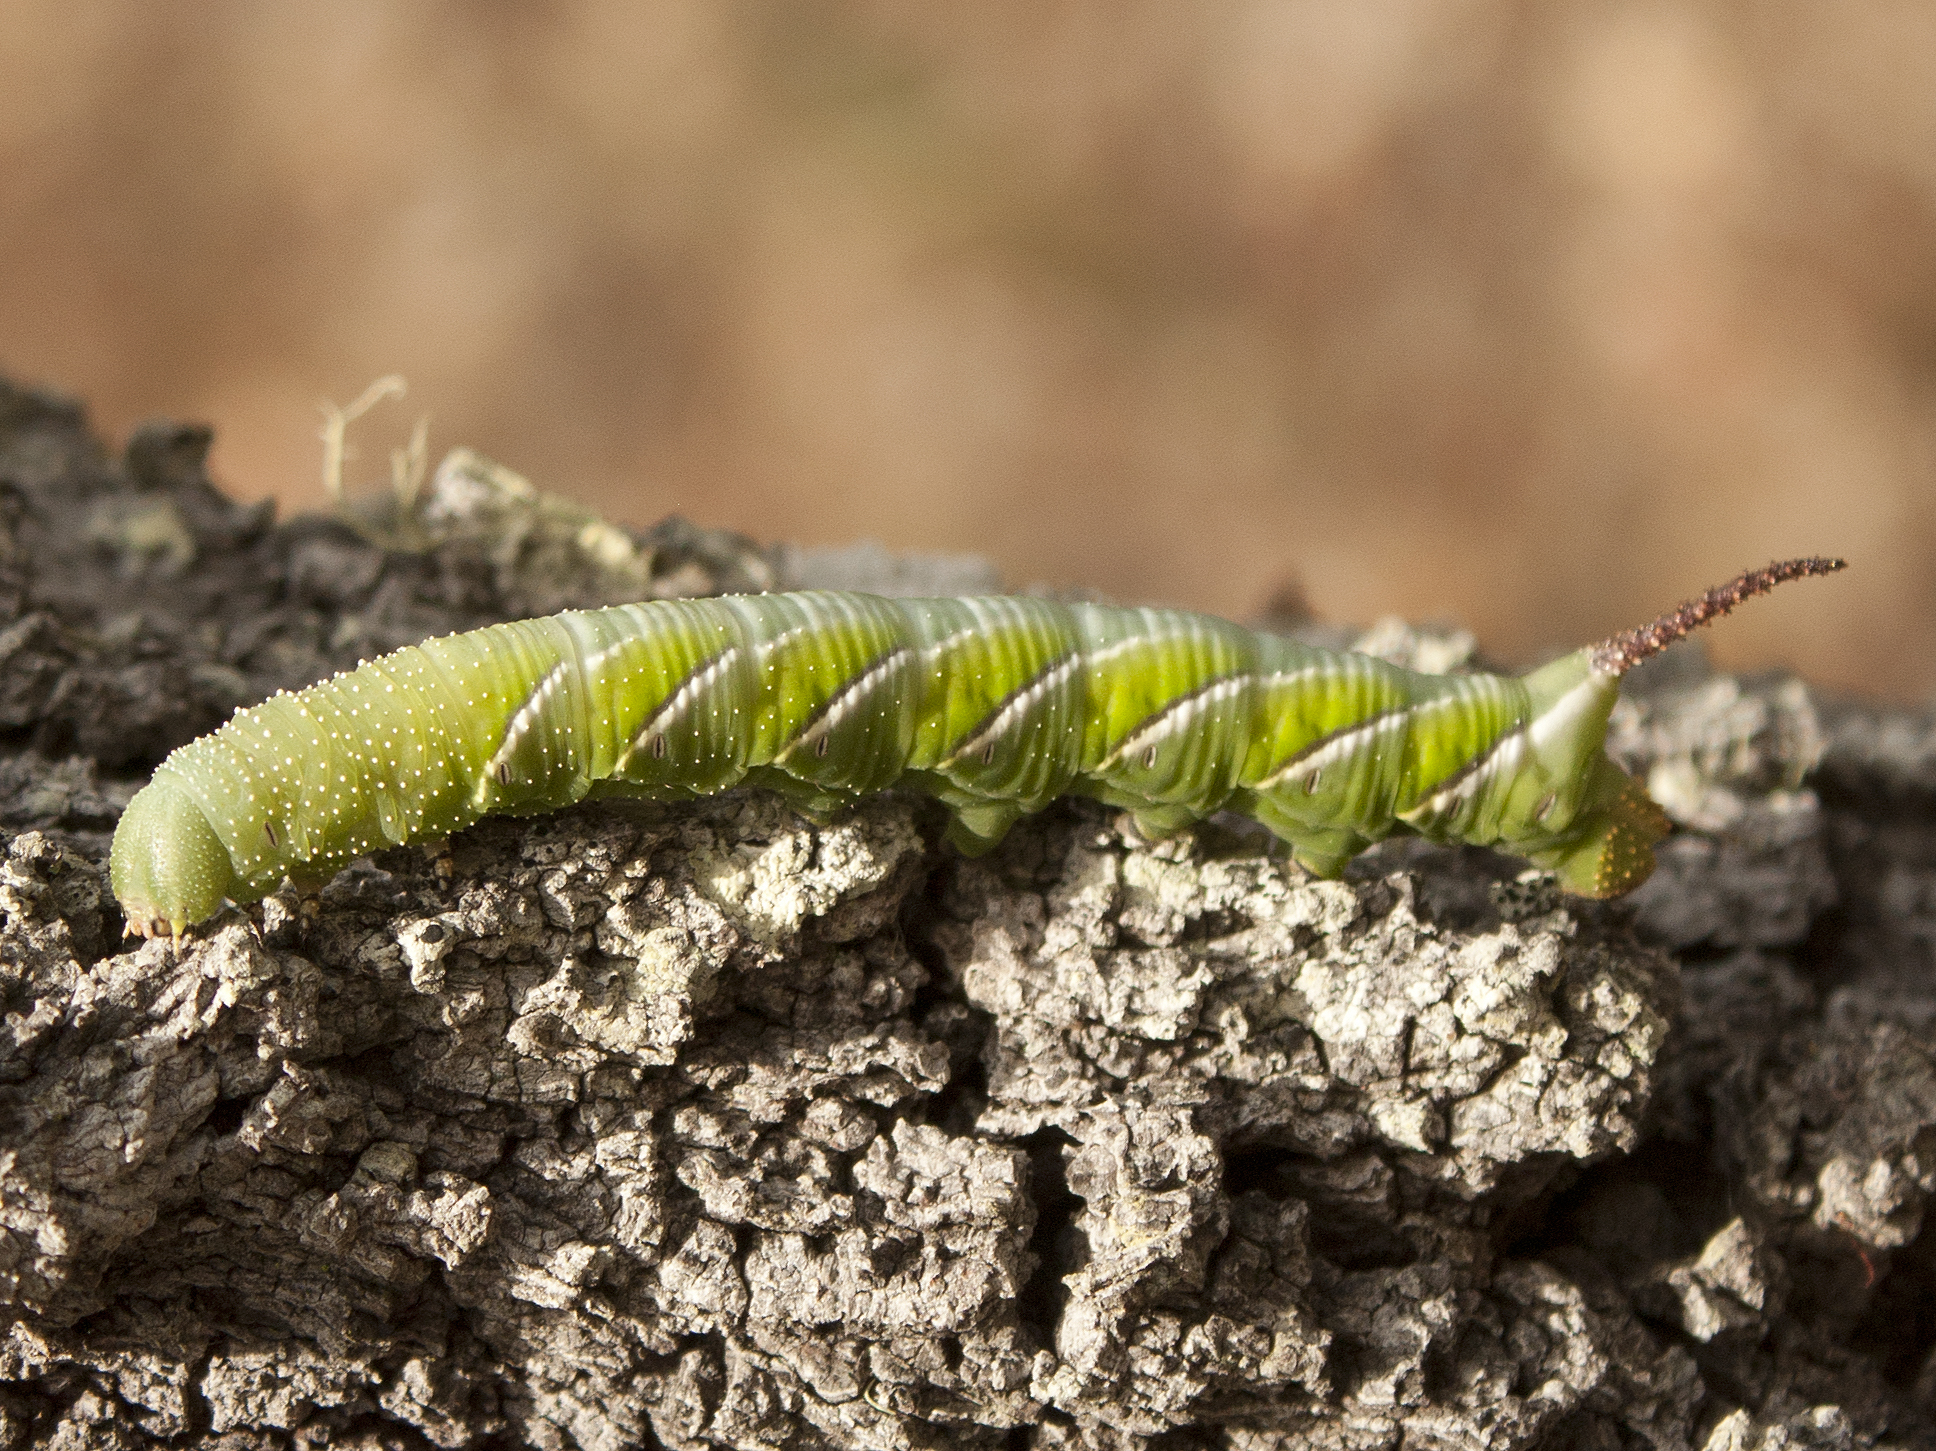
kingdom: Animalia
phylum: Arthropoda
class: Insecta
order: Lepidoptera
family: Sphingidae
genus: Psilogramma
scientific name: Psilogramma casuarinae
